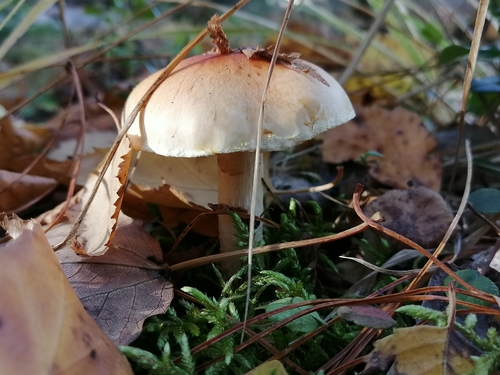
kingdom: Fungi
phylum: Basidiomycota
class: Agaricomycetes
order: Agaricales
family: Strophariaceae
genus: Hypholoma
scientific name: Hypholoma lateritium
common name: Brick caps
